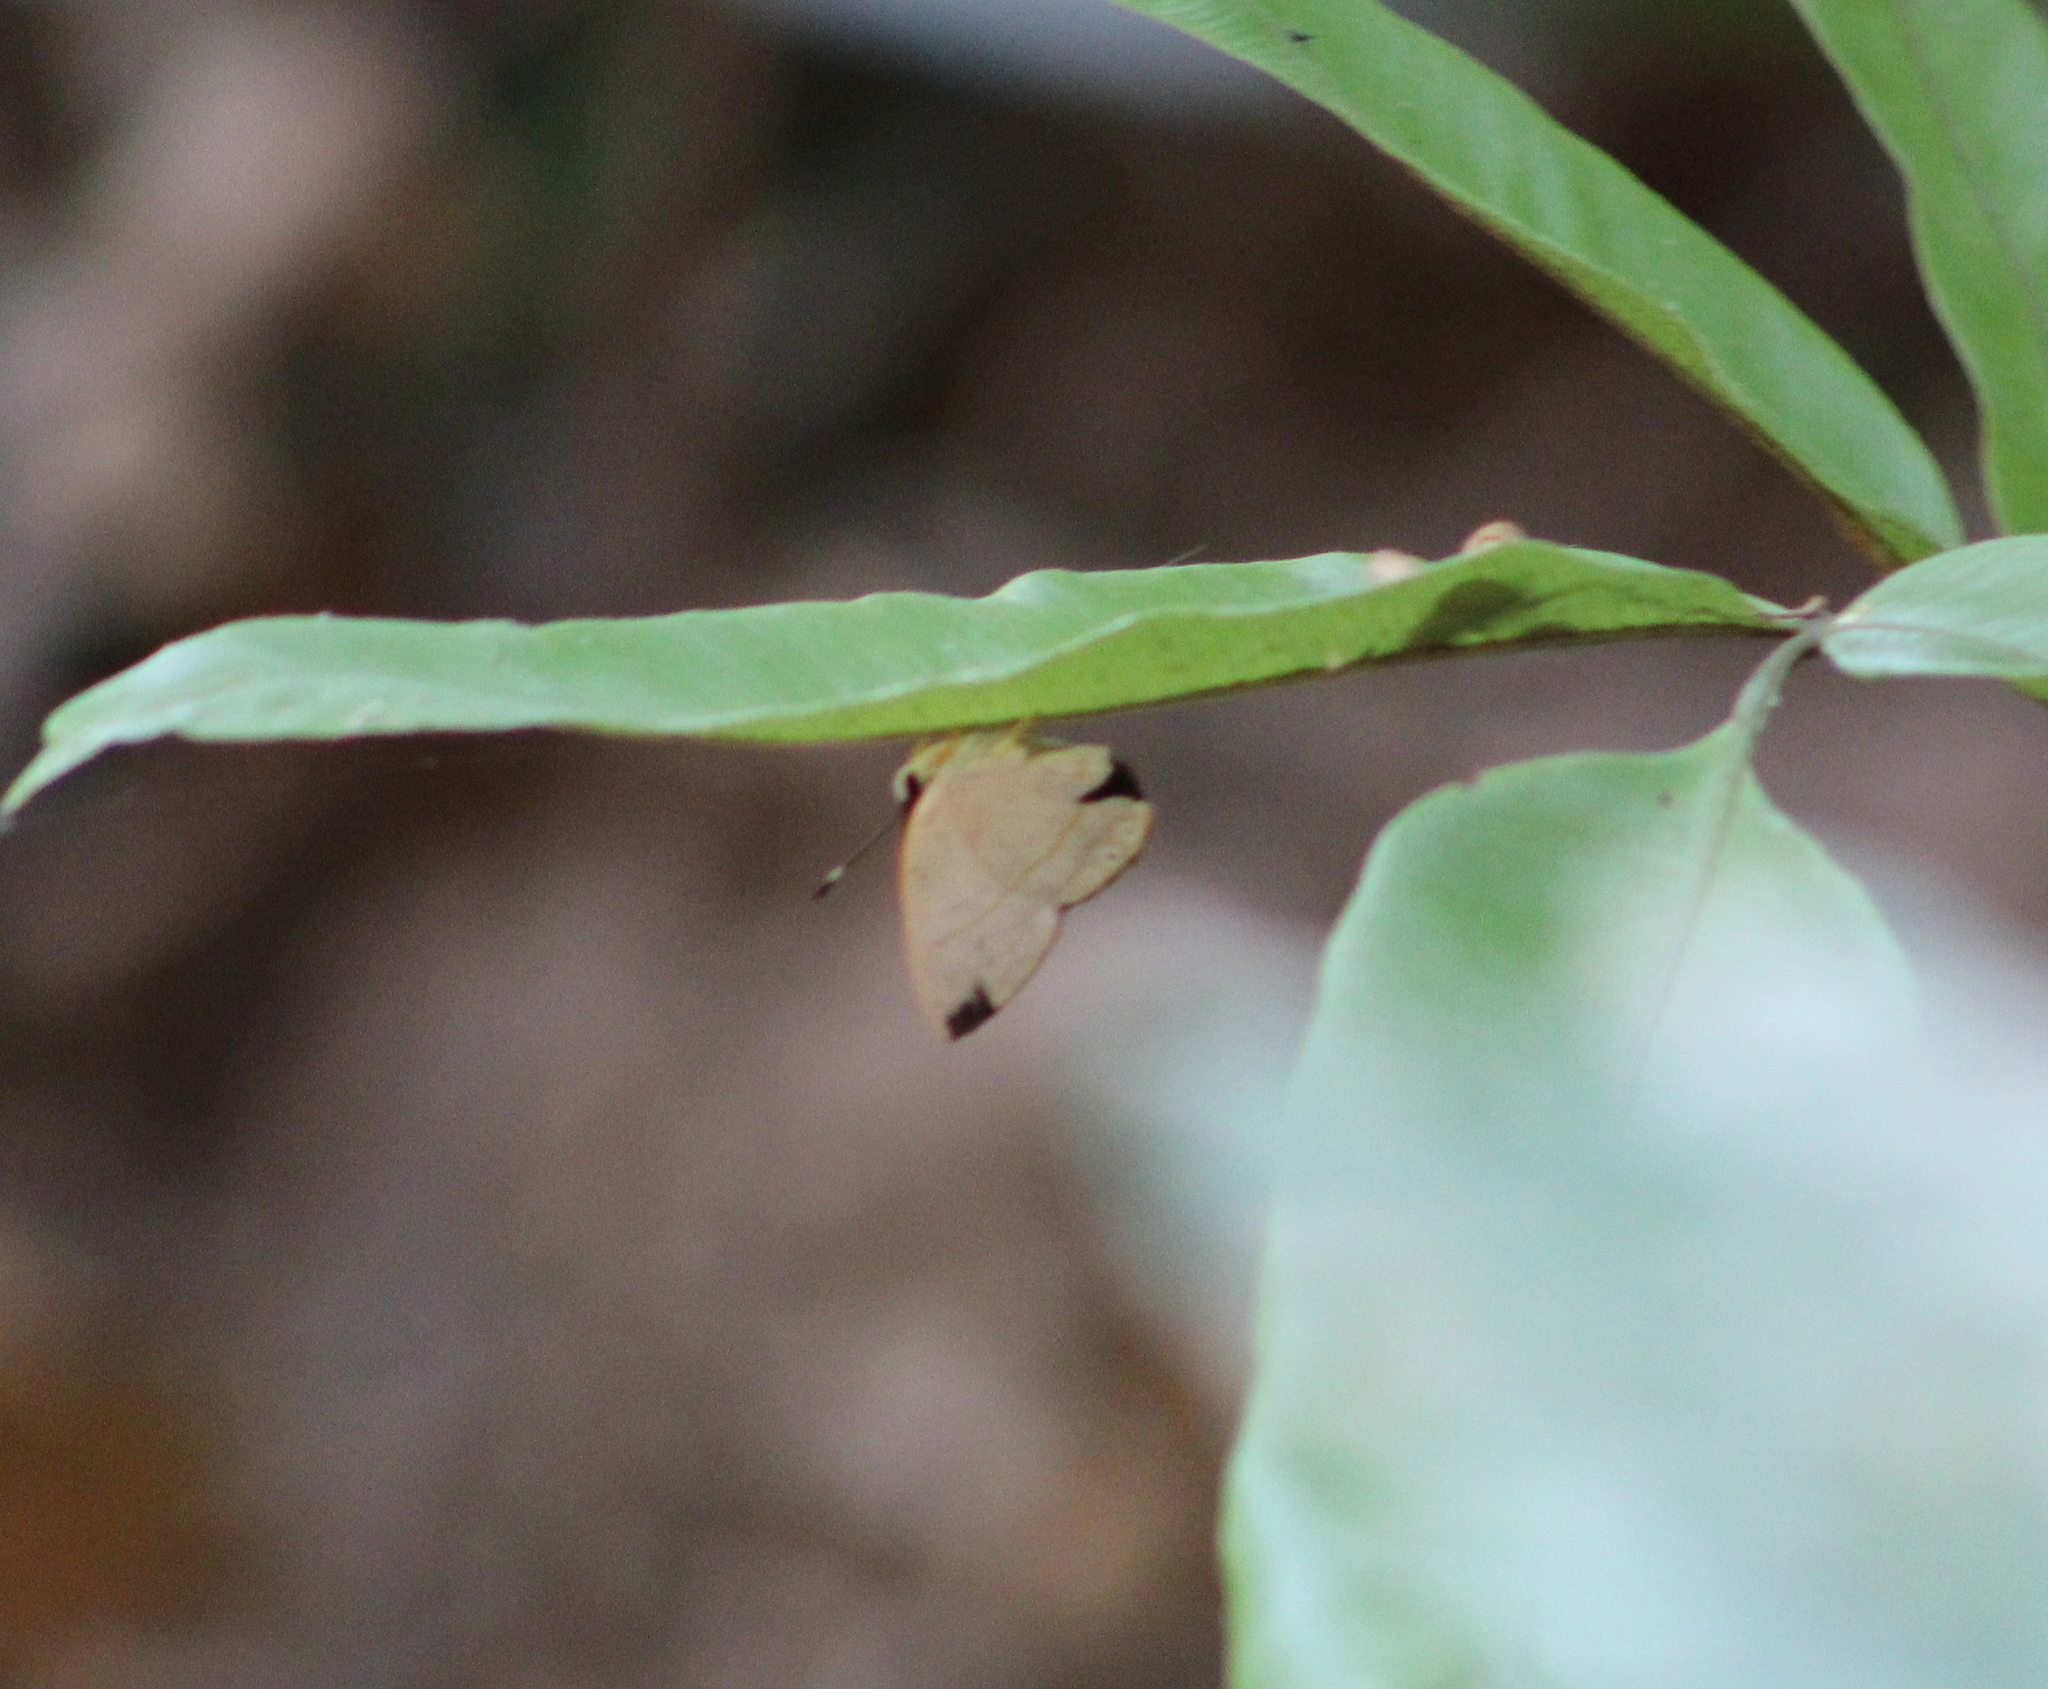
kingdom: Animalia
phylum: Arthropoda
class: Insecta
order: Lepidoptera
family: Riodinidae
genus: Pelolasia
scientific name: Pelolasia
